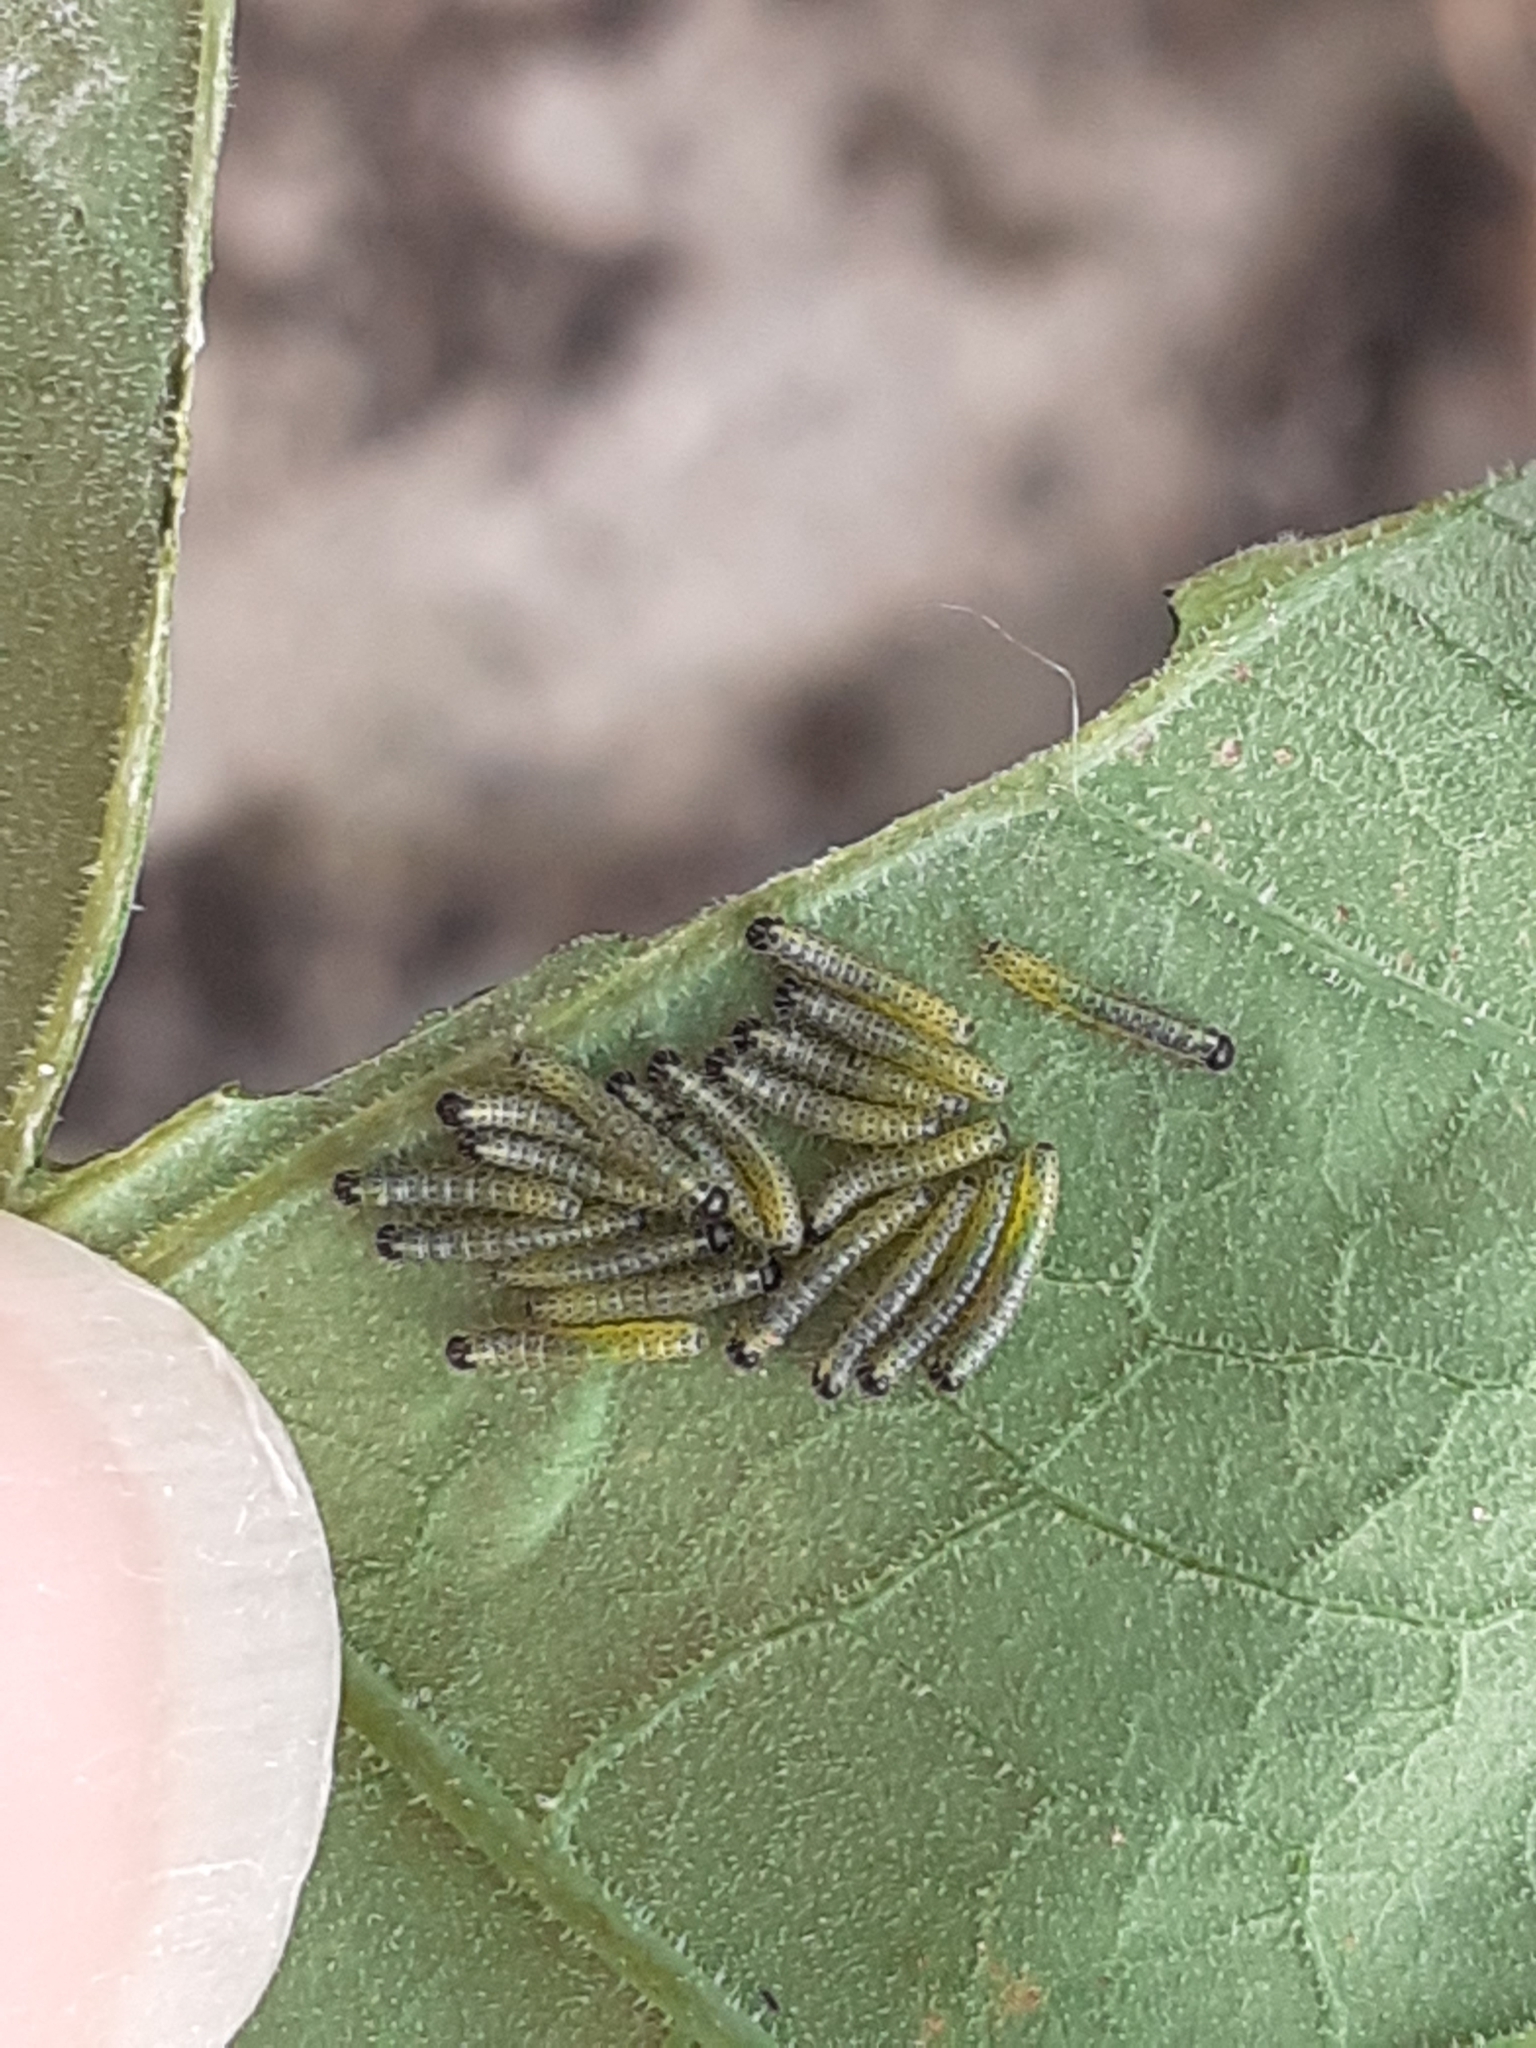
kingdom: Animalia
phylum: Arthropoda
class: Insecta
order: Lepidoptera
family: Pieridae
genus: Pieris
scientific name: Pieris cheiranthi
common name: Canary islands large white
